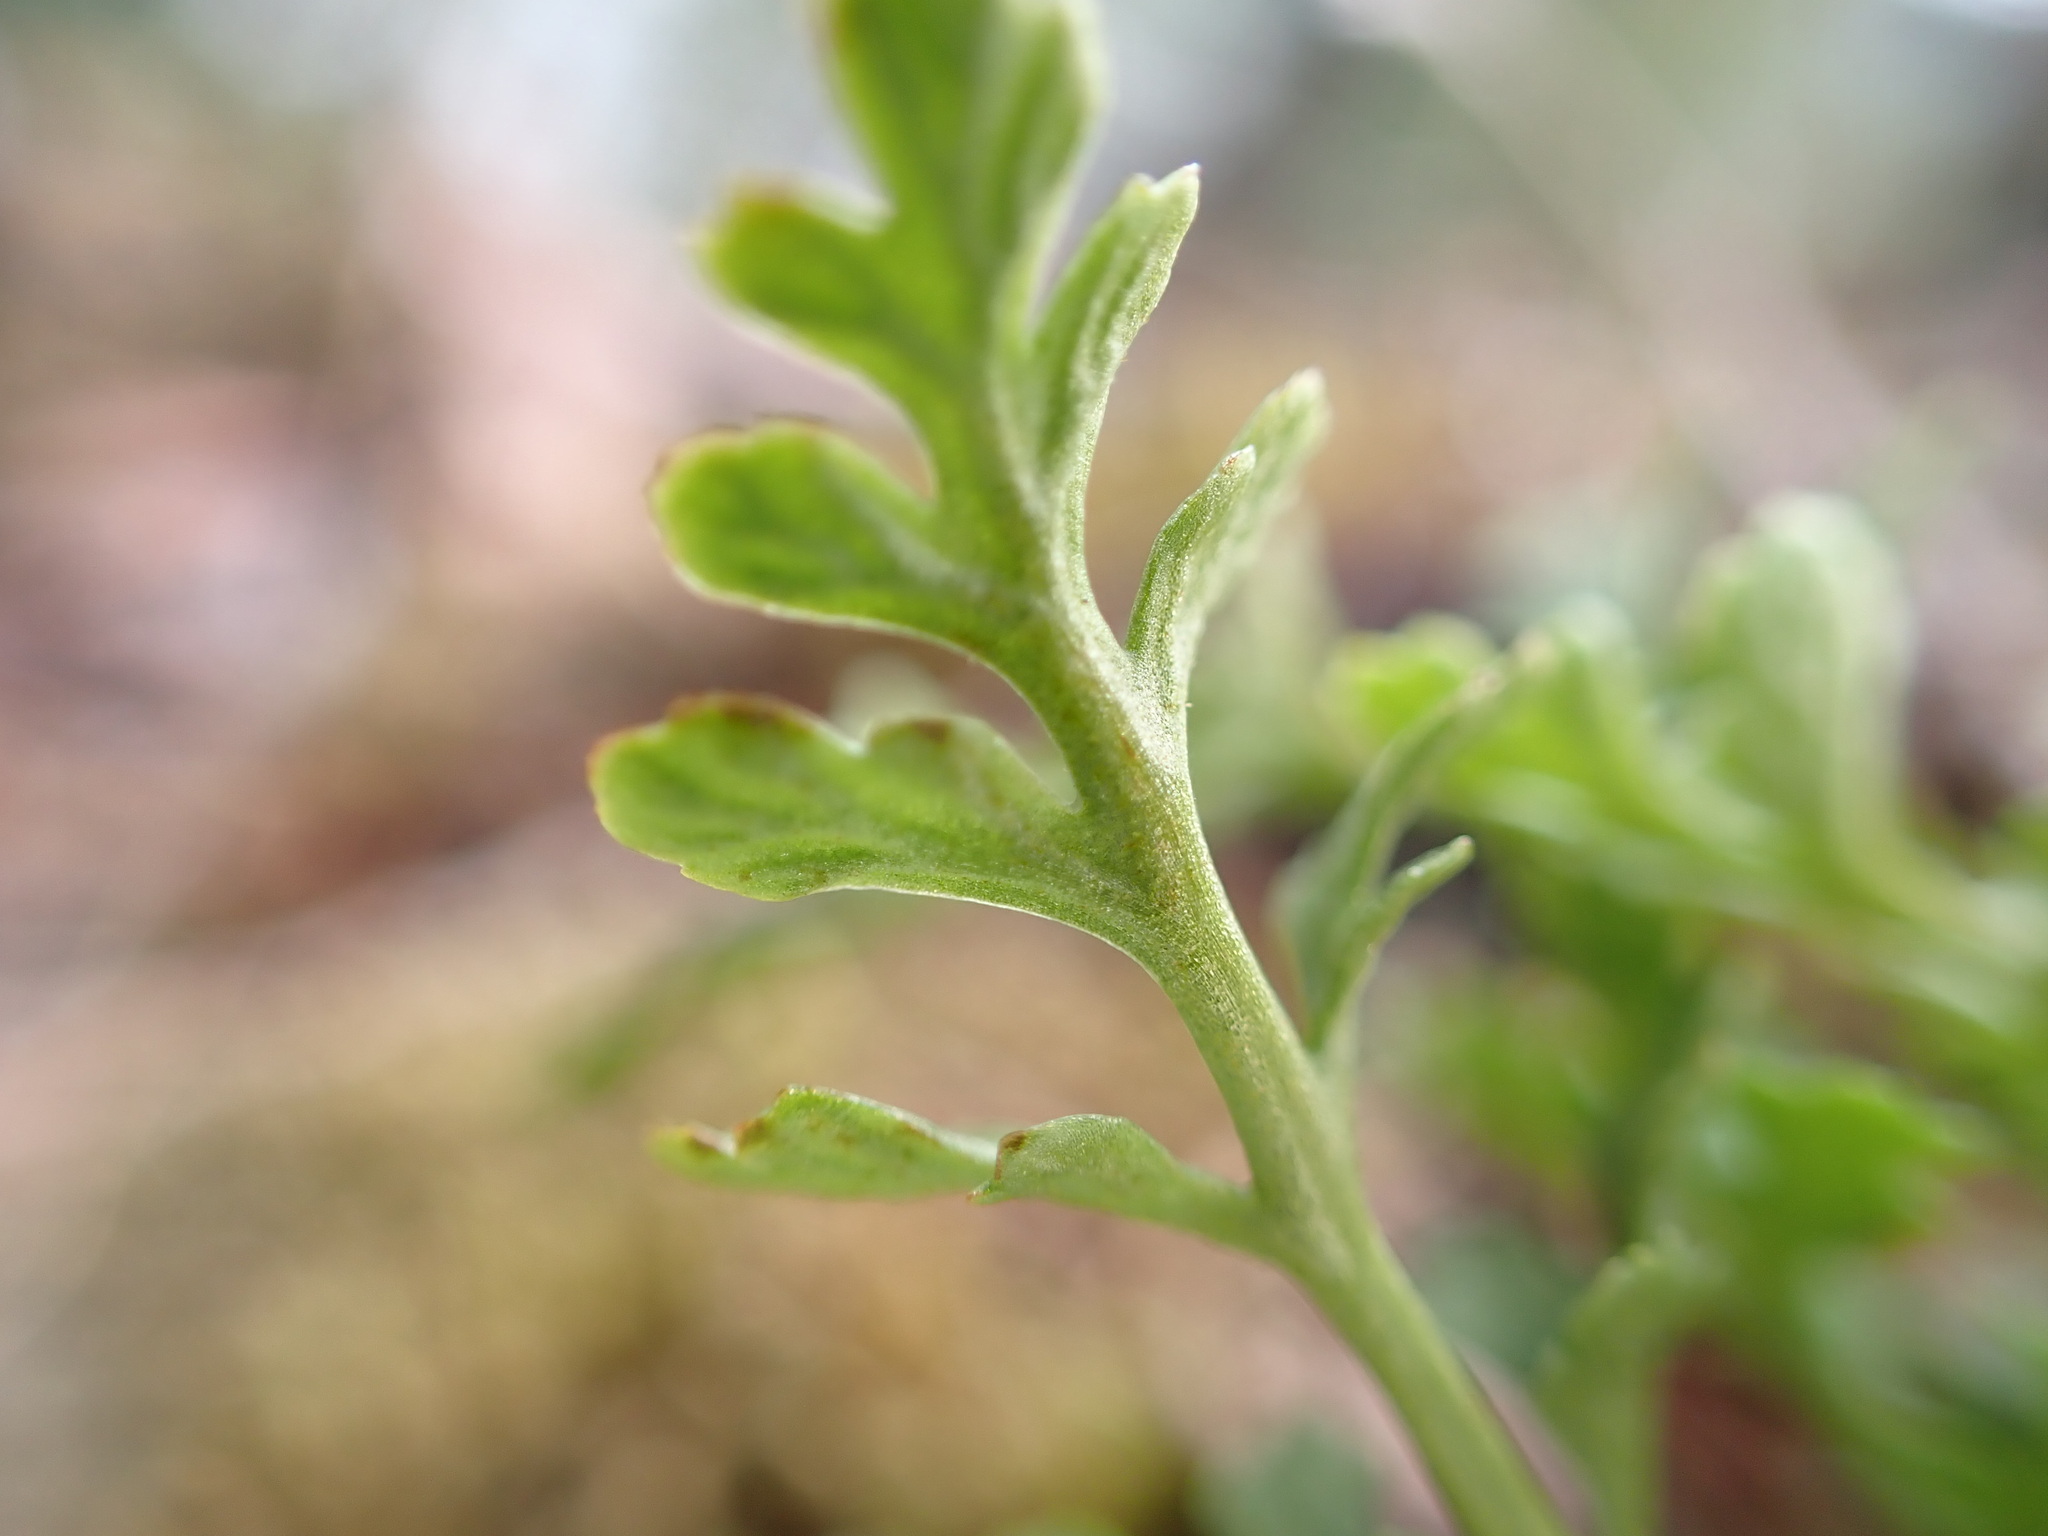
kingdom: Plantae
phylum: Tracheophyta
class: Polypodiopsida
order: Polypodiales
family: Pteridaceae
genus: Cryptogramma
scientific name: Cryptogramma acrostichoides
